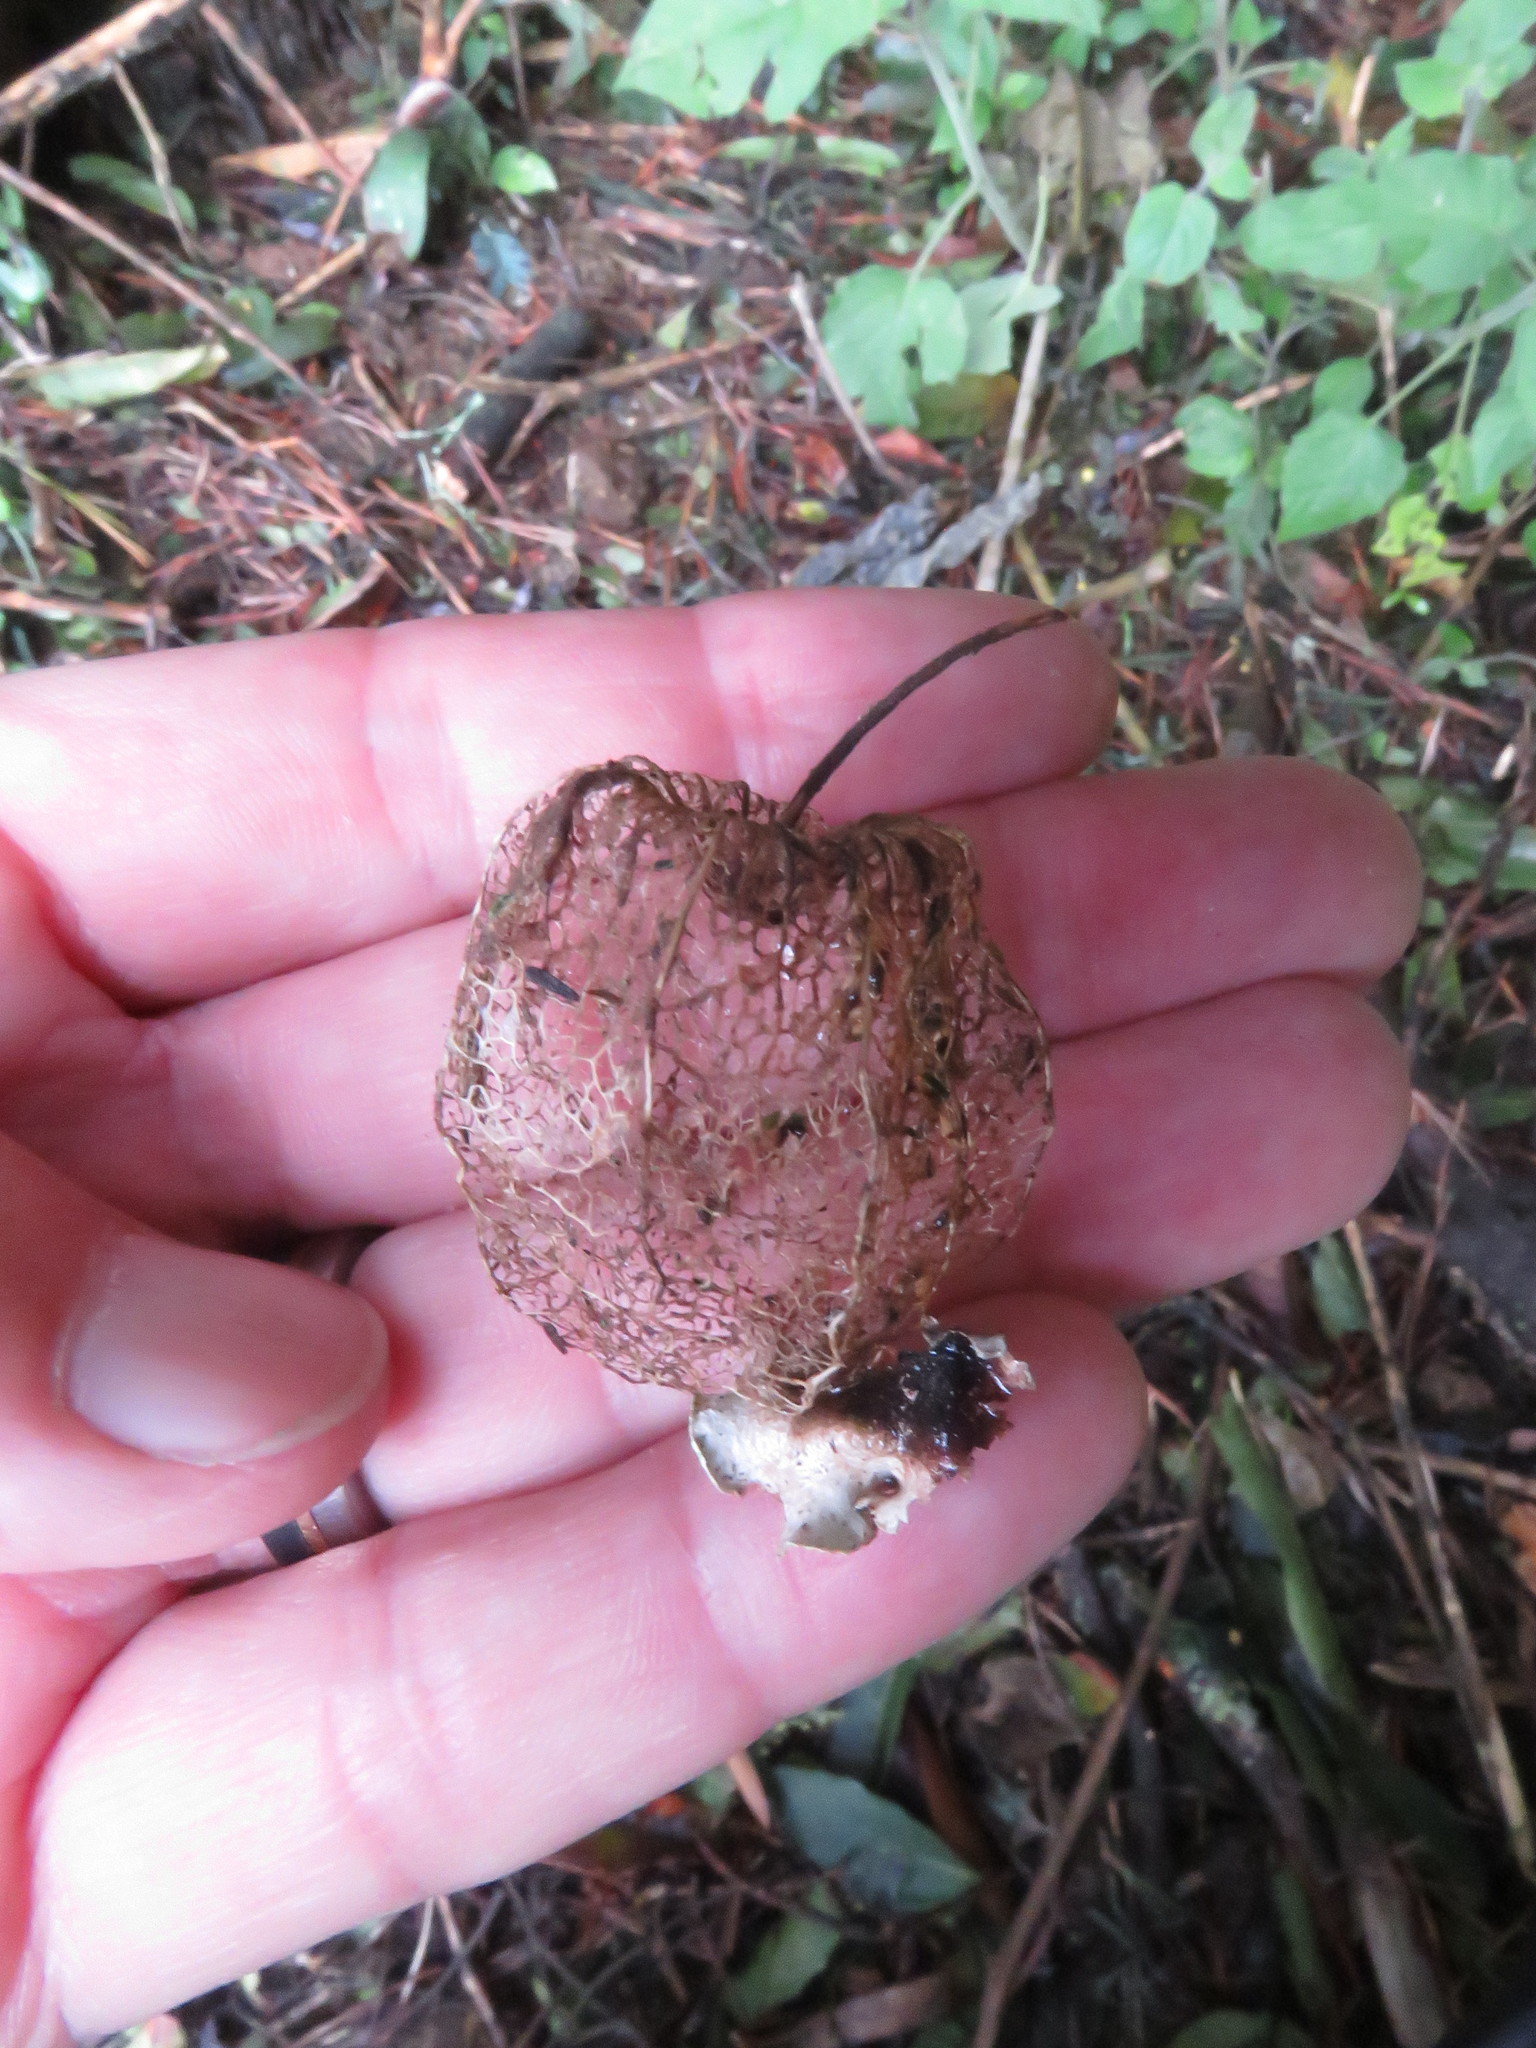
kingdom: Plantae
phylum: Tracheophyta
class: Magnoliopsida
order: Solanales
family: Solanaceae
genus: Physalis
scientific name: Physalis peruviana
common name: Cape-gooseberry
